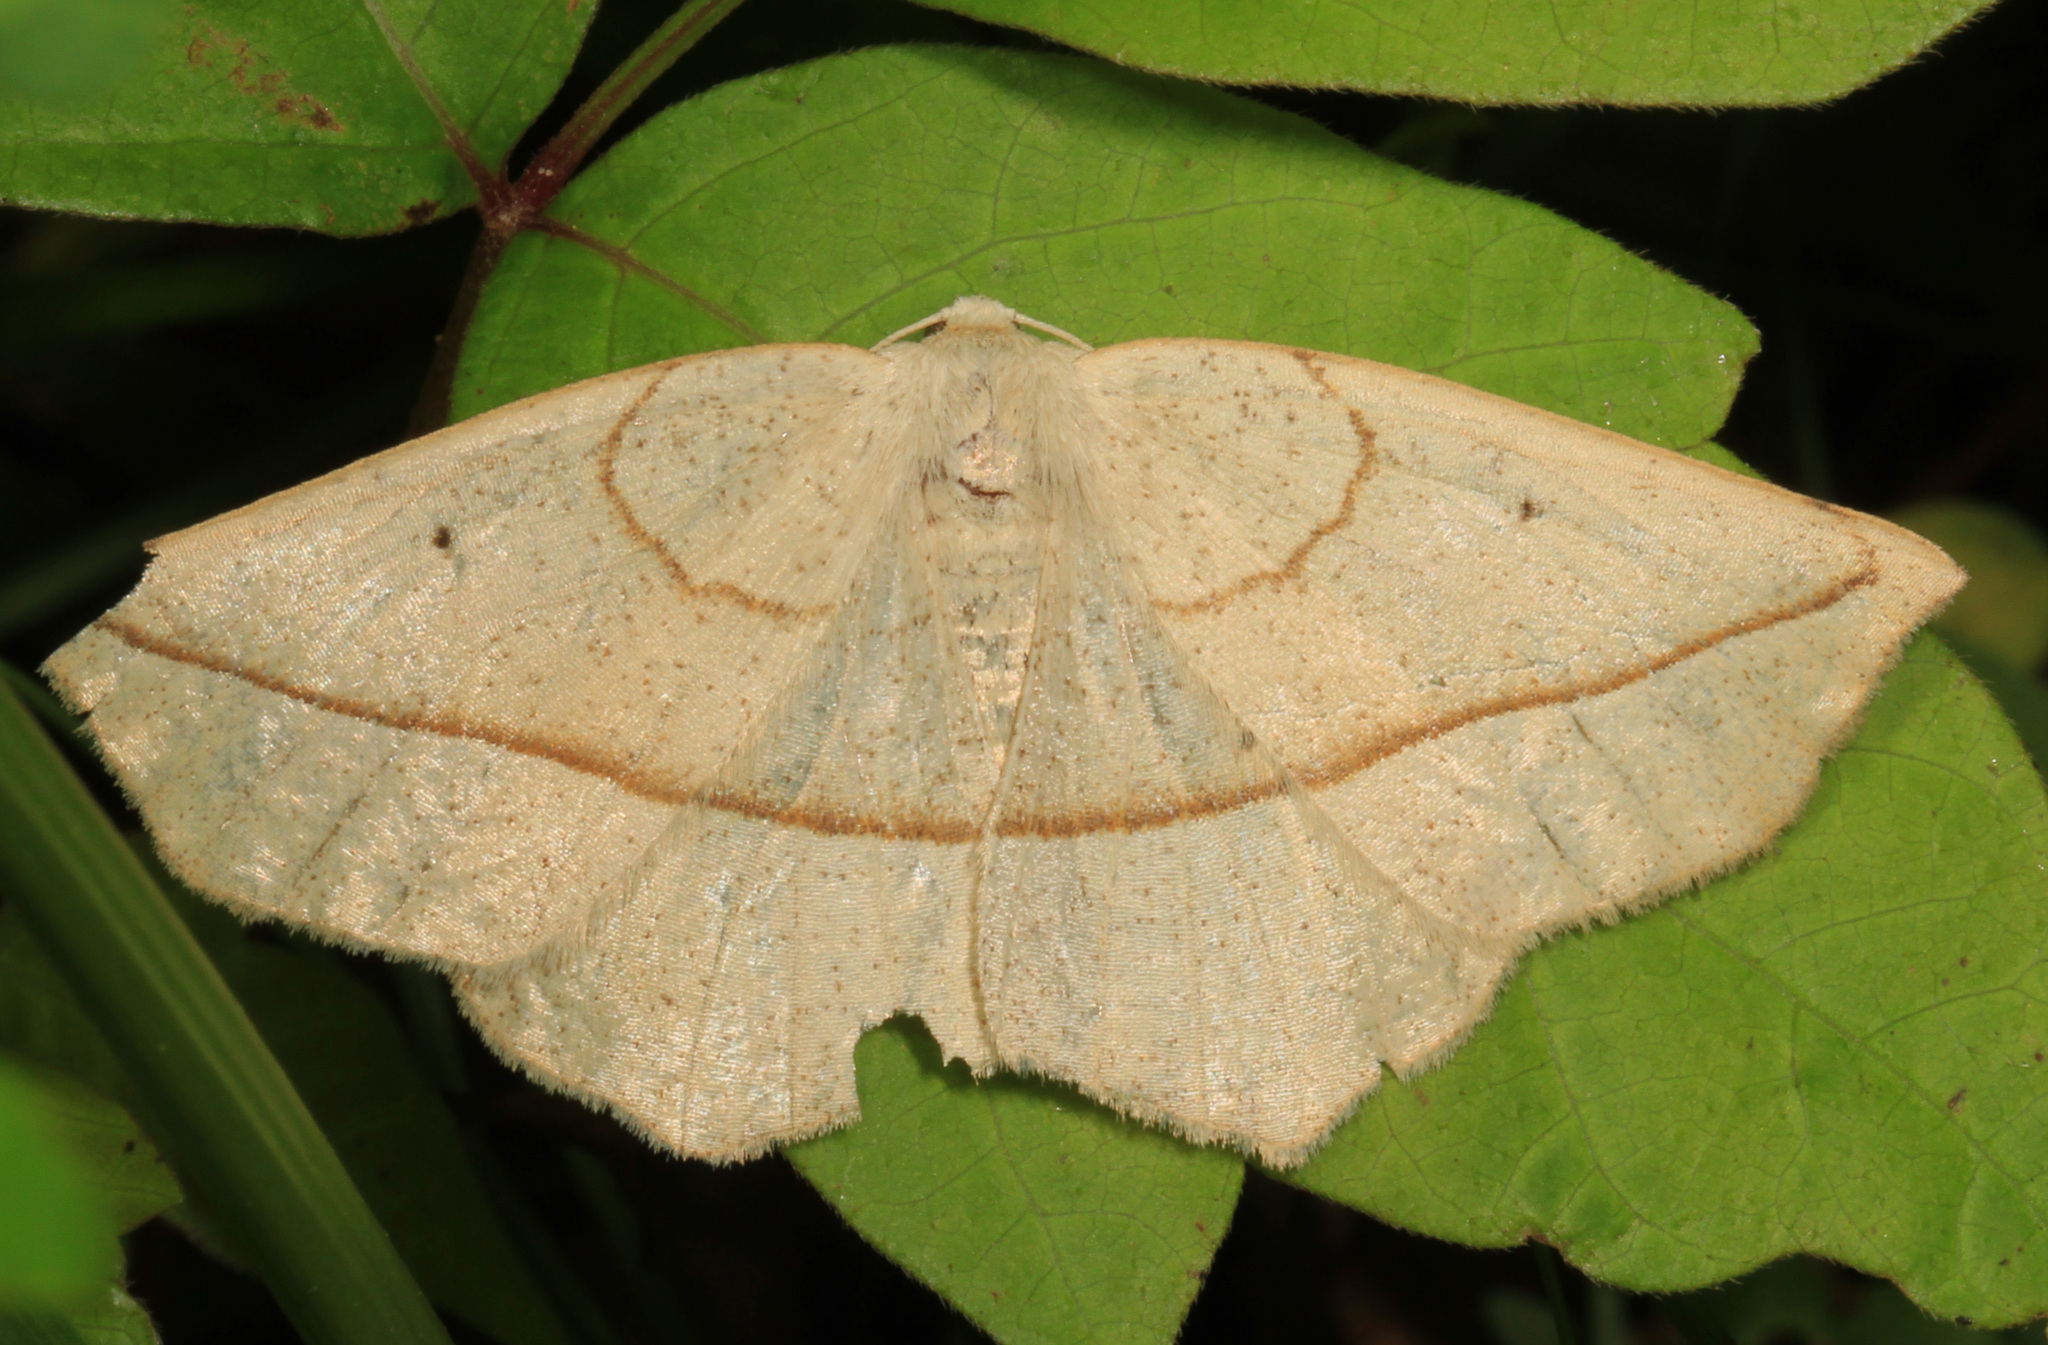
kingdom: Animalia
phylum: Arthropoda
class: Insecta
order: Lepidoptera
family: Geometridae
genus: Eusarca
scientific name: Eusarca confusaria
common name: Confused eusarca
